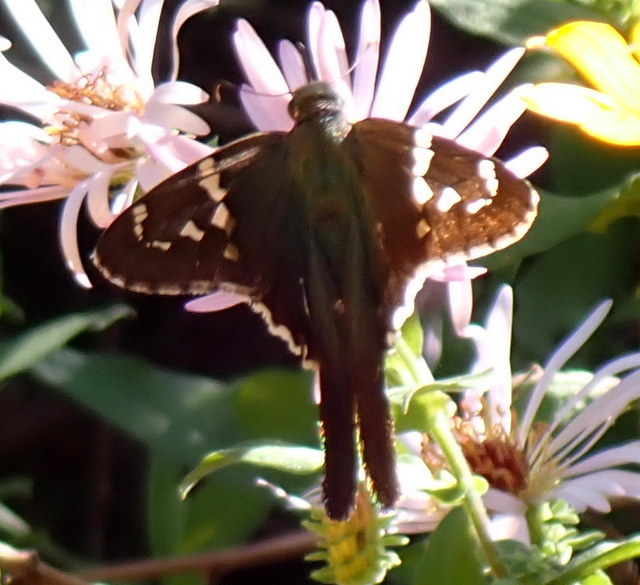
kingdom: Animalia
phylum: Arthropoda
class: Insecta
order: Lepidoptera
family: Hesperiidae
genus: Urbanus
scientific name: Urbanus proteus
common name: Long-tailed skipper
